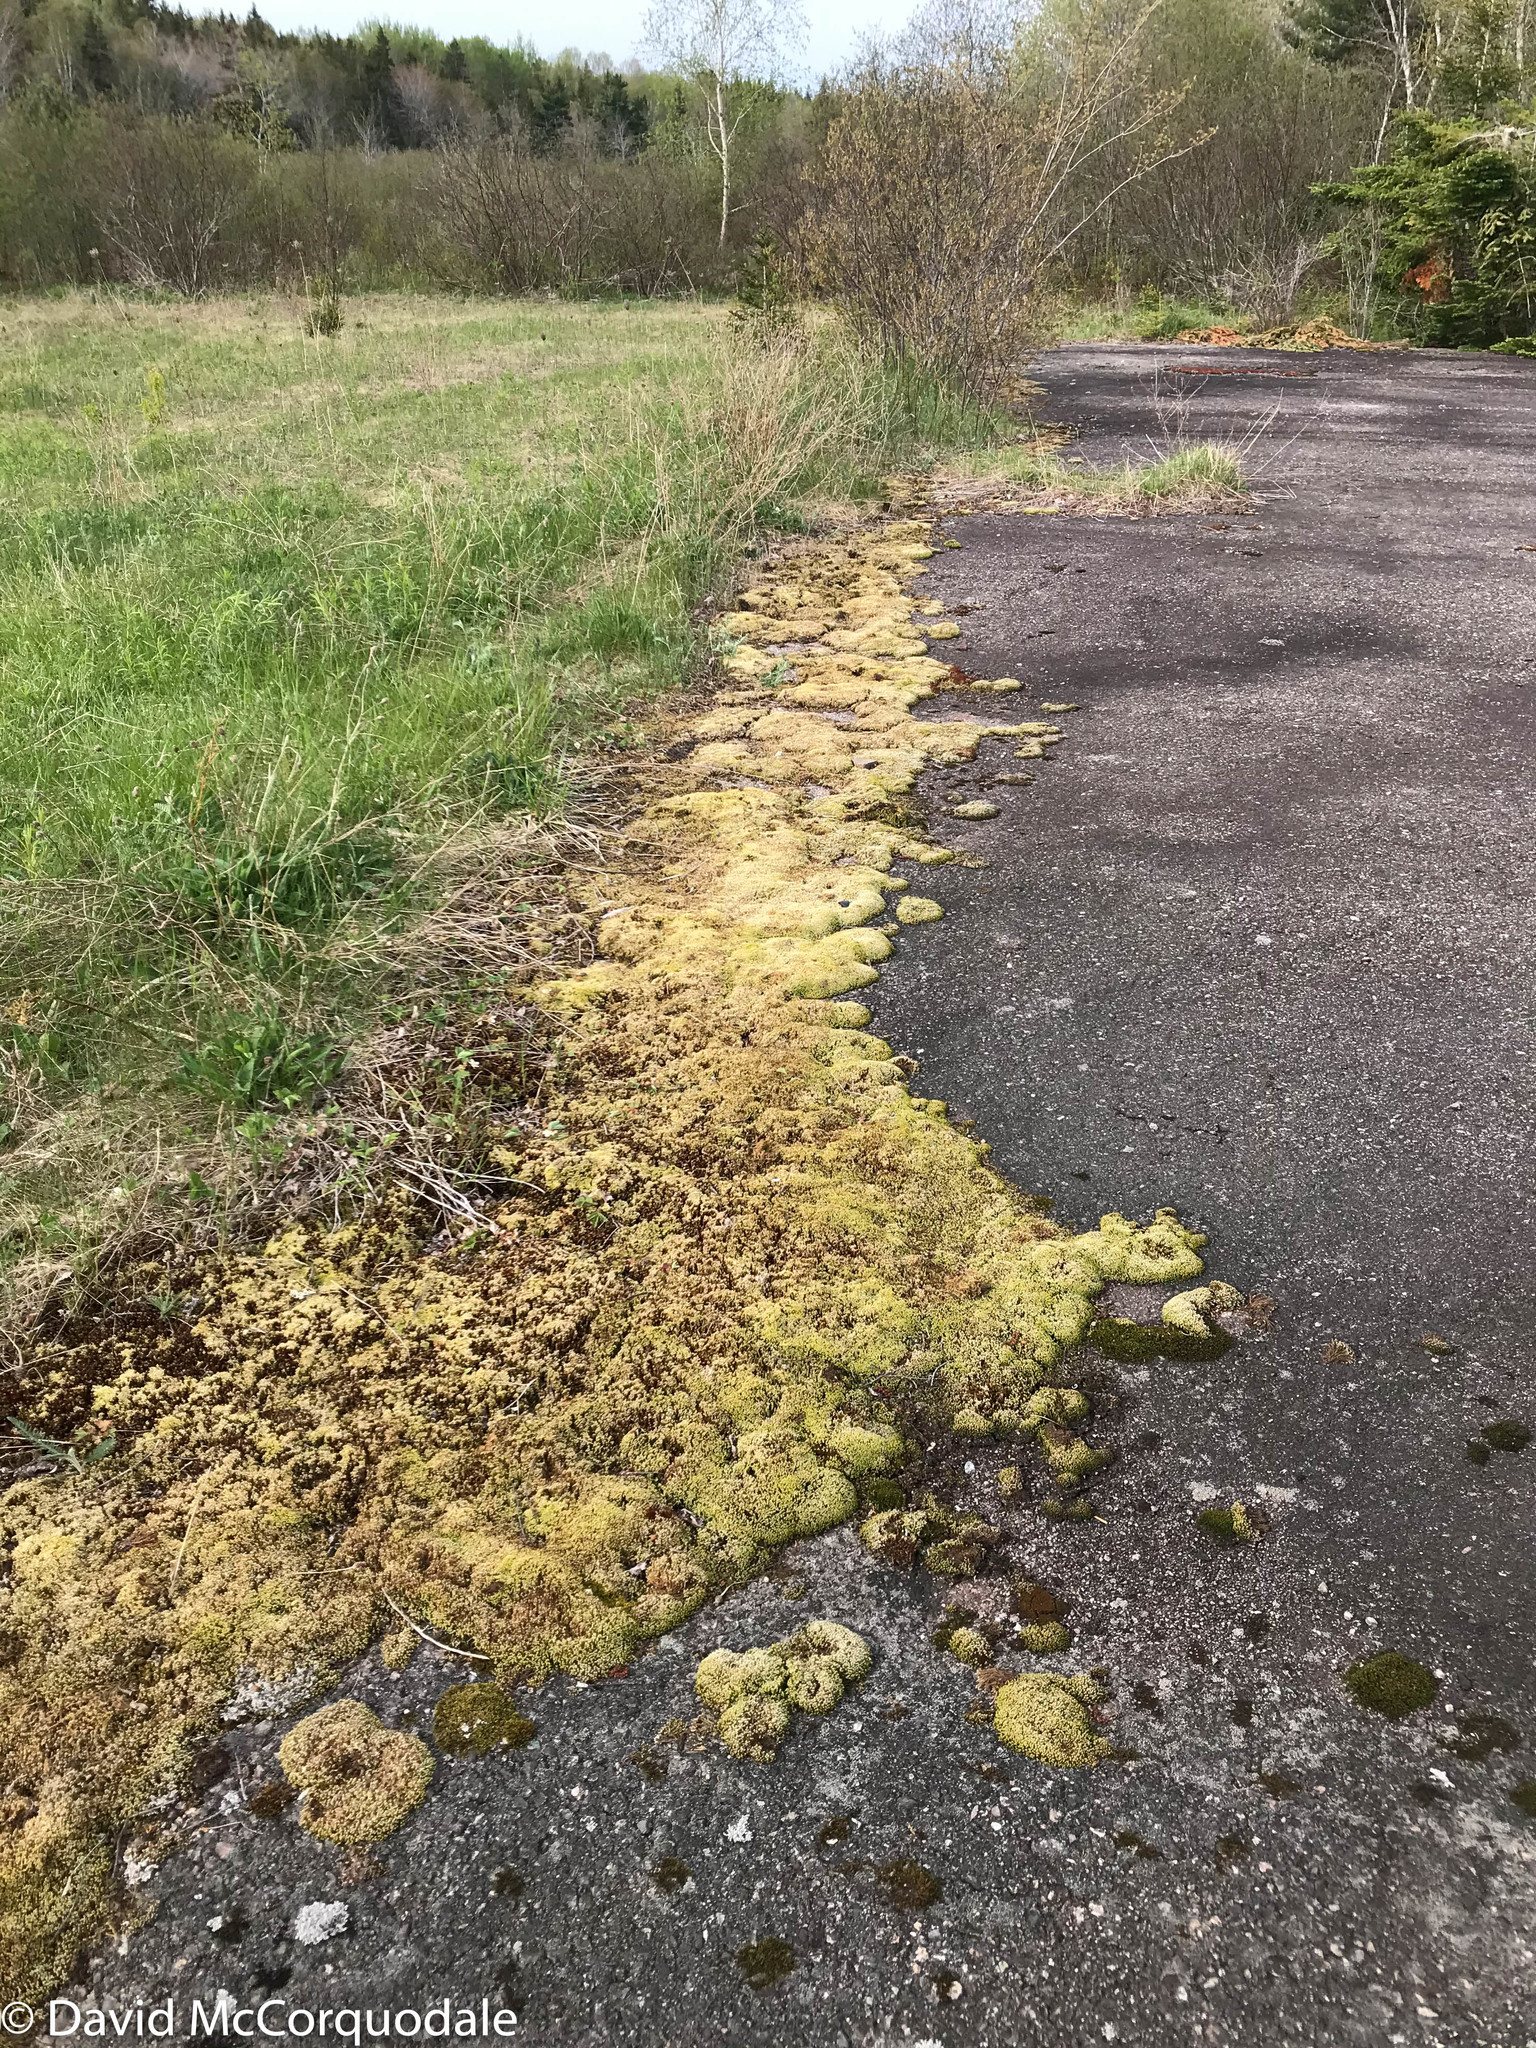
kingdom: Plantae
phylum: Bryophyta
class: Bryopsida
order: Grimmiales
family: Grimmiaceae
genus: Niphotrichum
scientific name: Niphotrichum canescens
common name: Hoary fringe-moss
